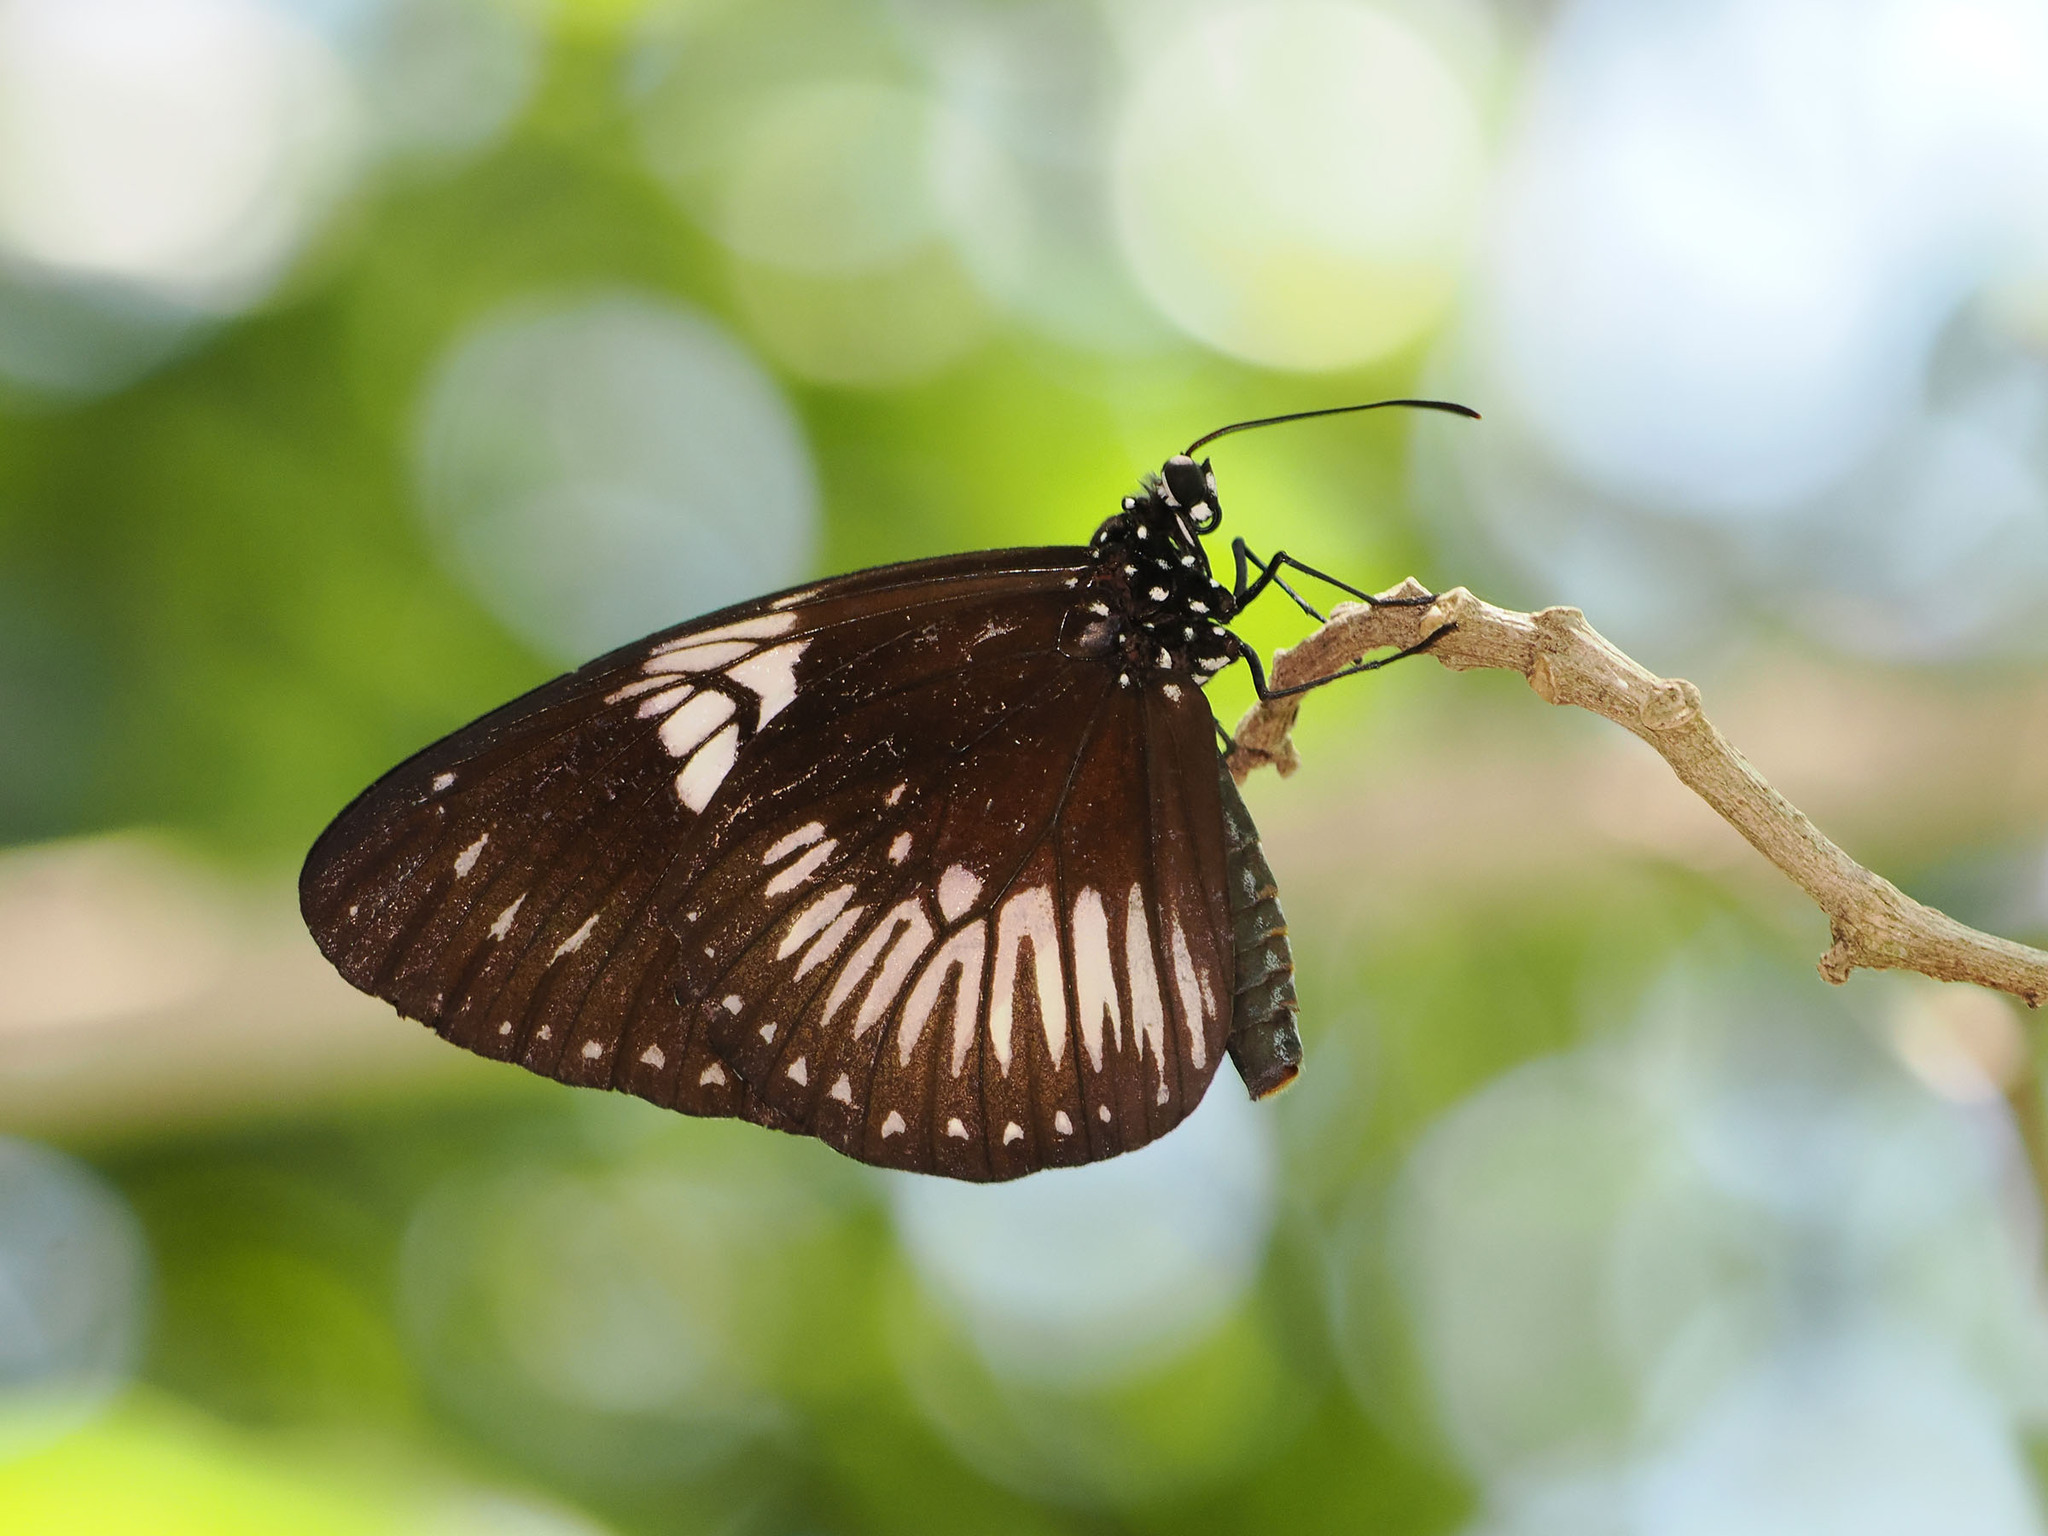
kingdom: Animalia
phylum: Arthropoda
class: Insecta
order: Lepidoptera
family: Nymphalidae
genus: Euploea
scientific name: Euploea eupator
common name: Sulawesi pied crow
